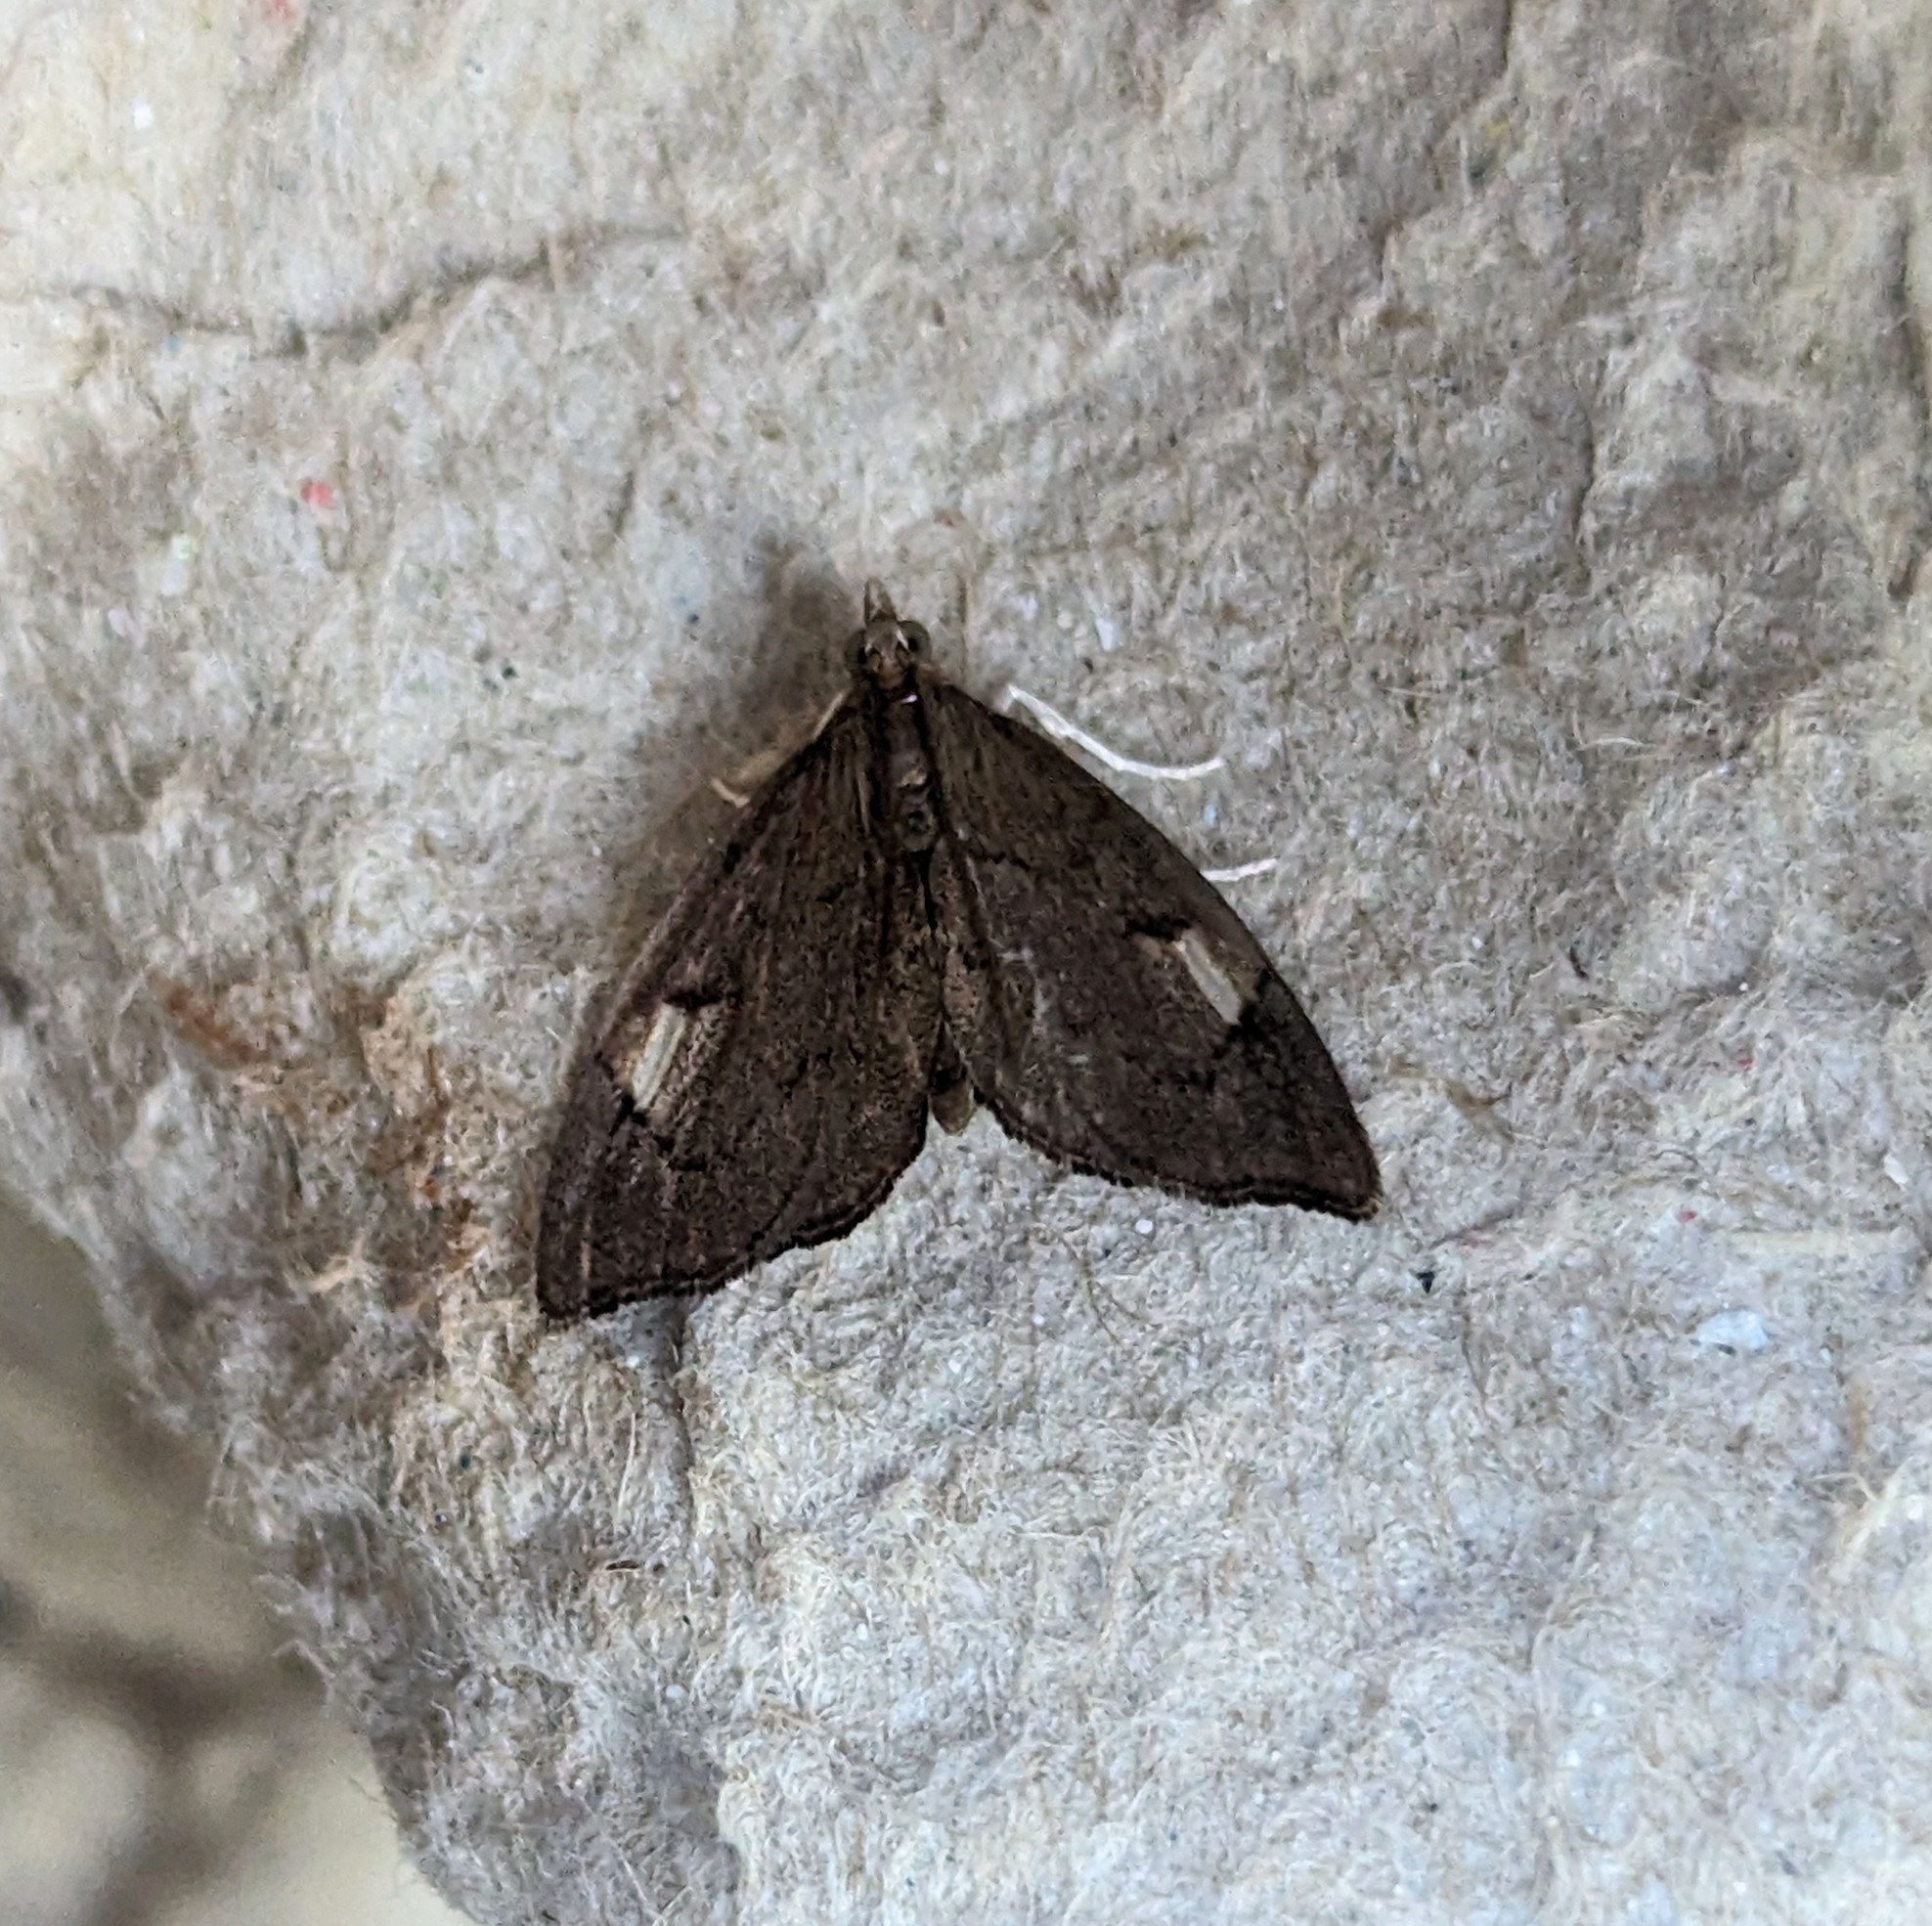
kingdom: Animalia
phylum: Arthropoda
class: Insecta
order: Lepidoptera
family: Crambidae
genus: Perispasta
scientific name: Perispasta caeculalis
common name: Titian peale's moth
